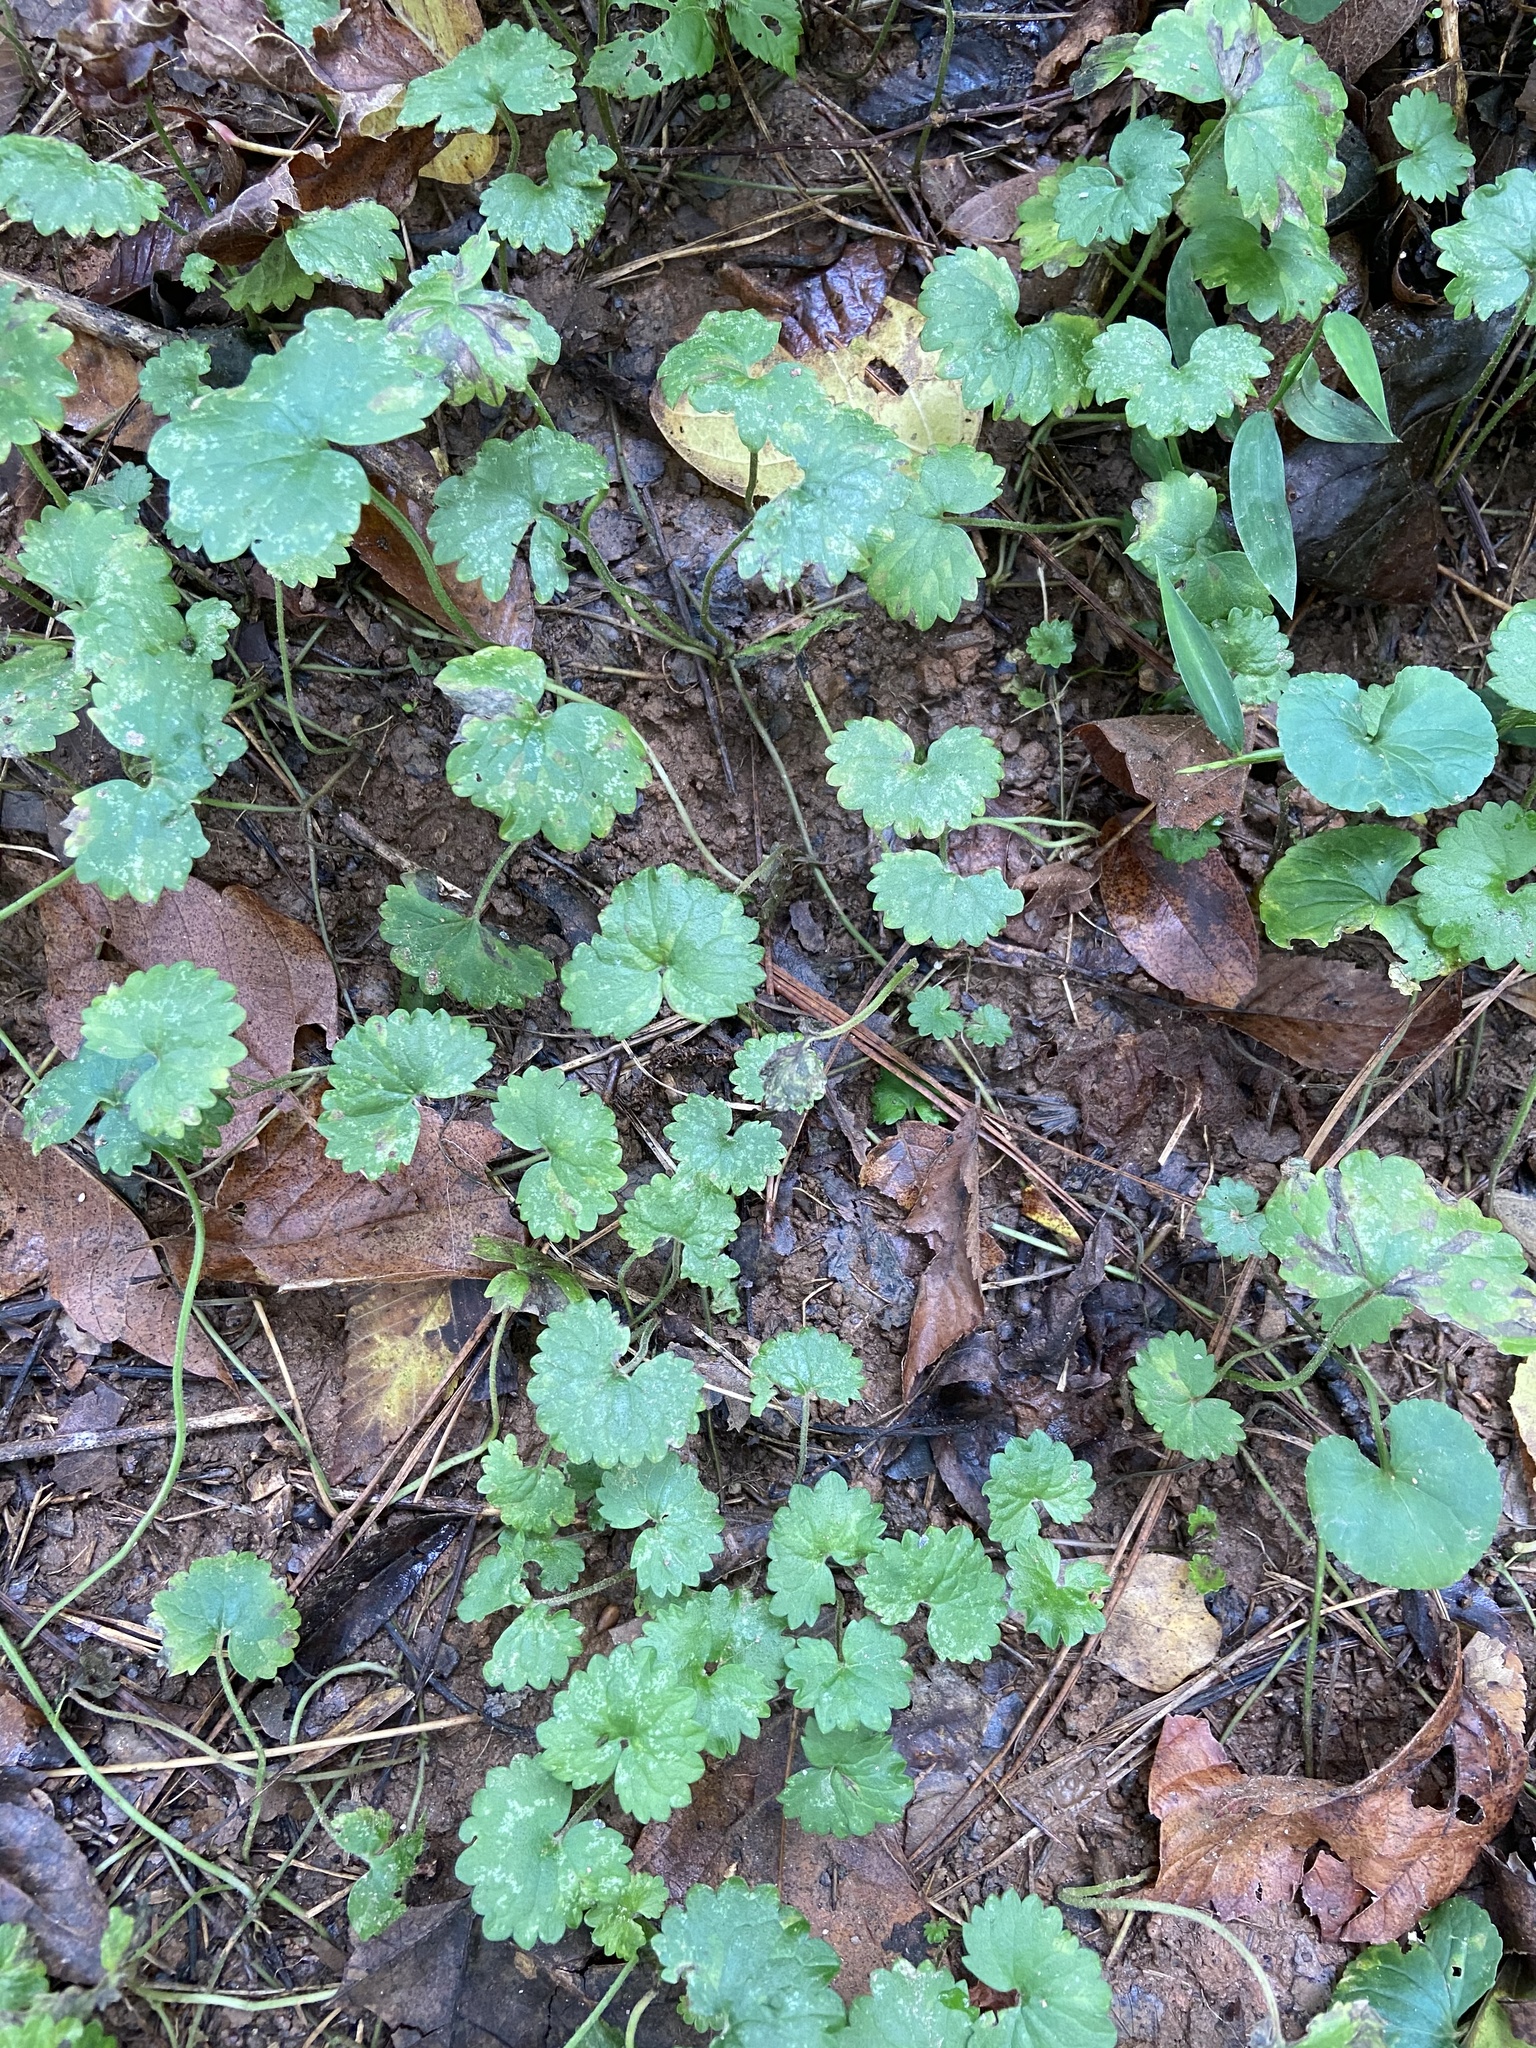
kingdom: Plantae
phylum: Tracheophyta
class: Magnoliopsida
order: Lamiales
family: Lamiaceae
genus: Glechoma
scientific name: Glechoma hederacea
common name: Ground ivy
